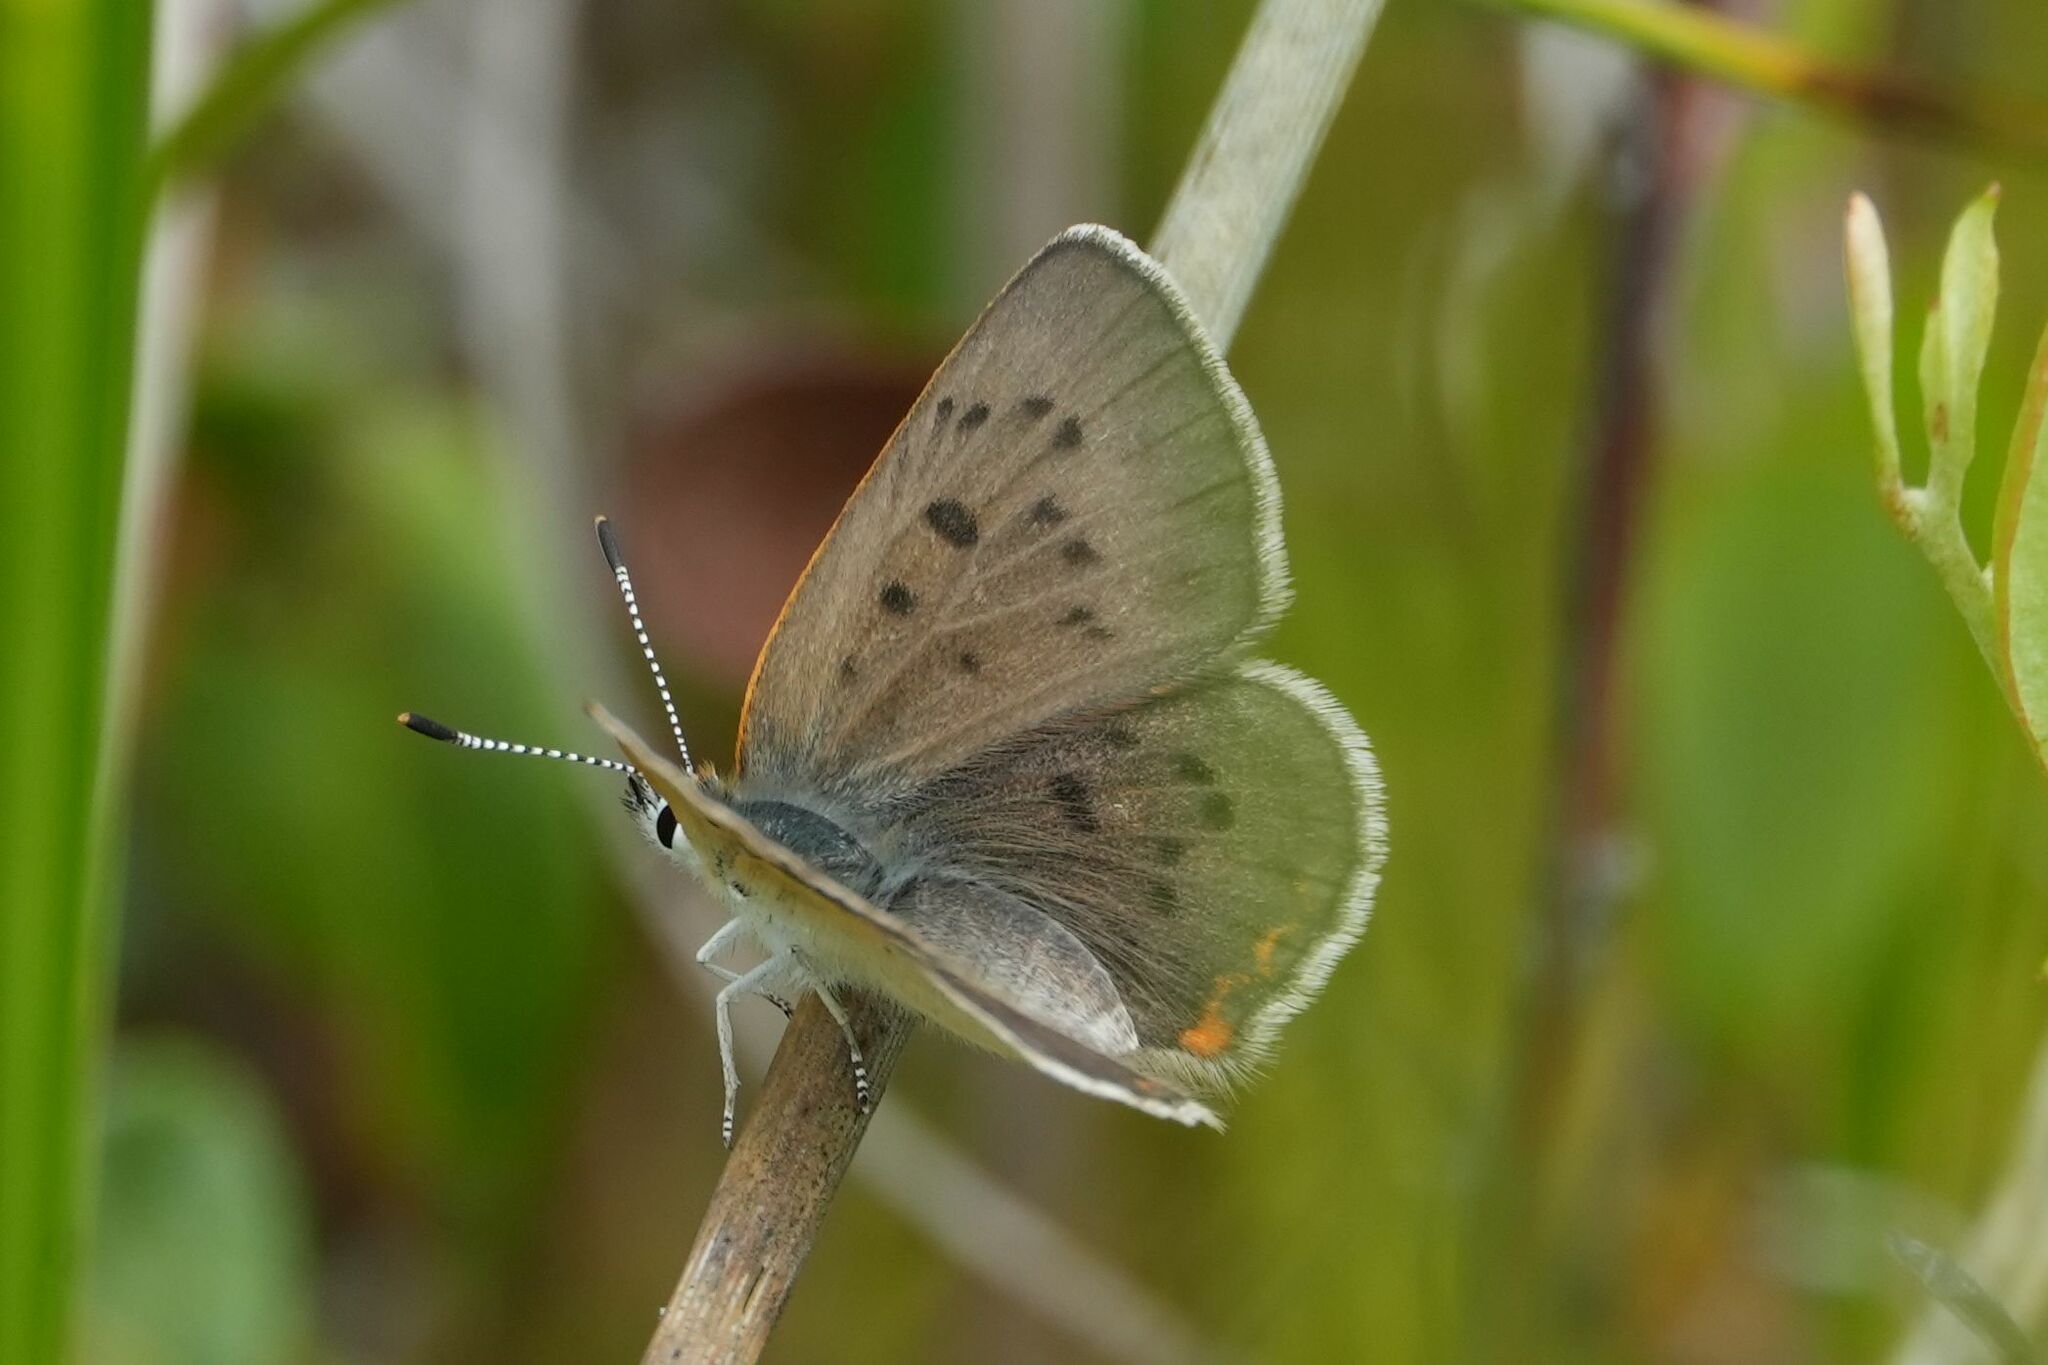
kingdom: Animalia
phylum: Arthropoda
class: Insecta
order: Lepidoptera
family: Lycaenidae
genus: Tharsalea
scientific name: Tharsalea epixanthe
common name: Bog copper
